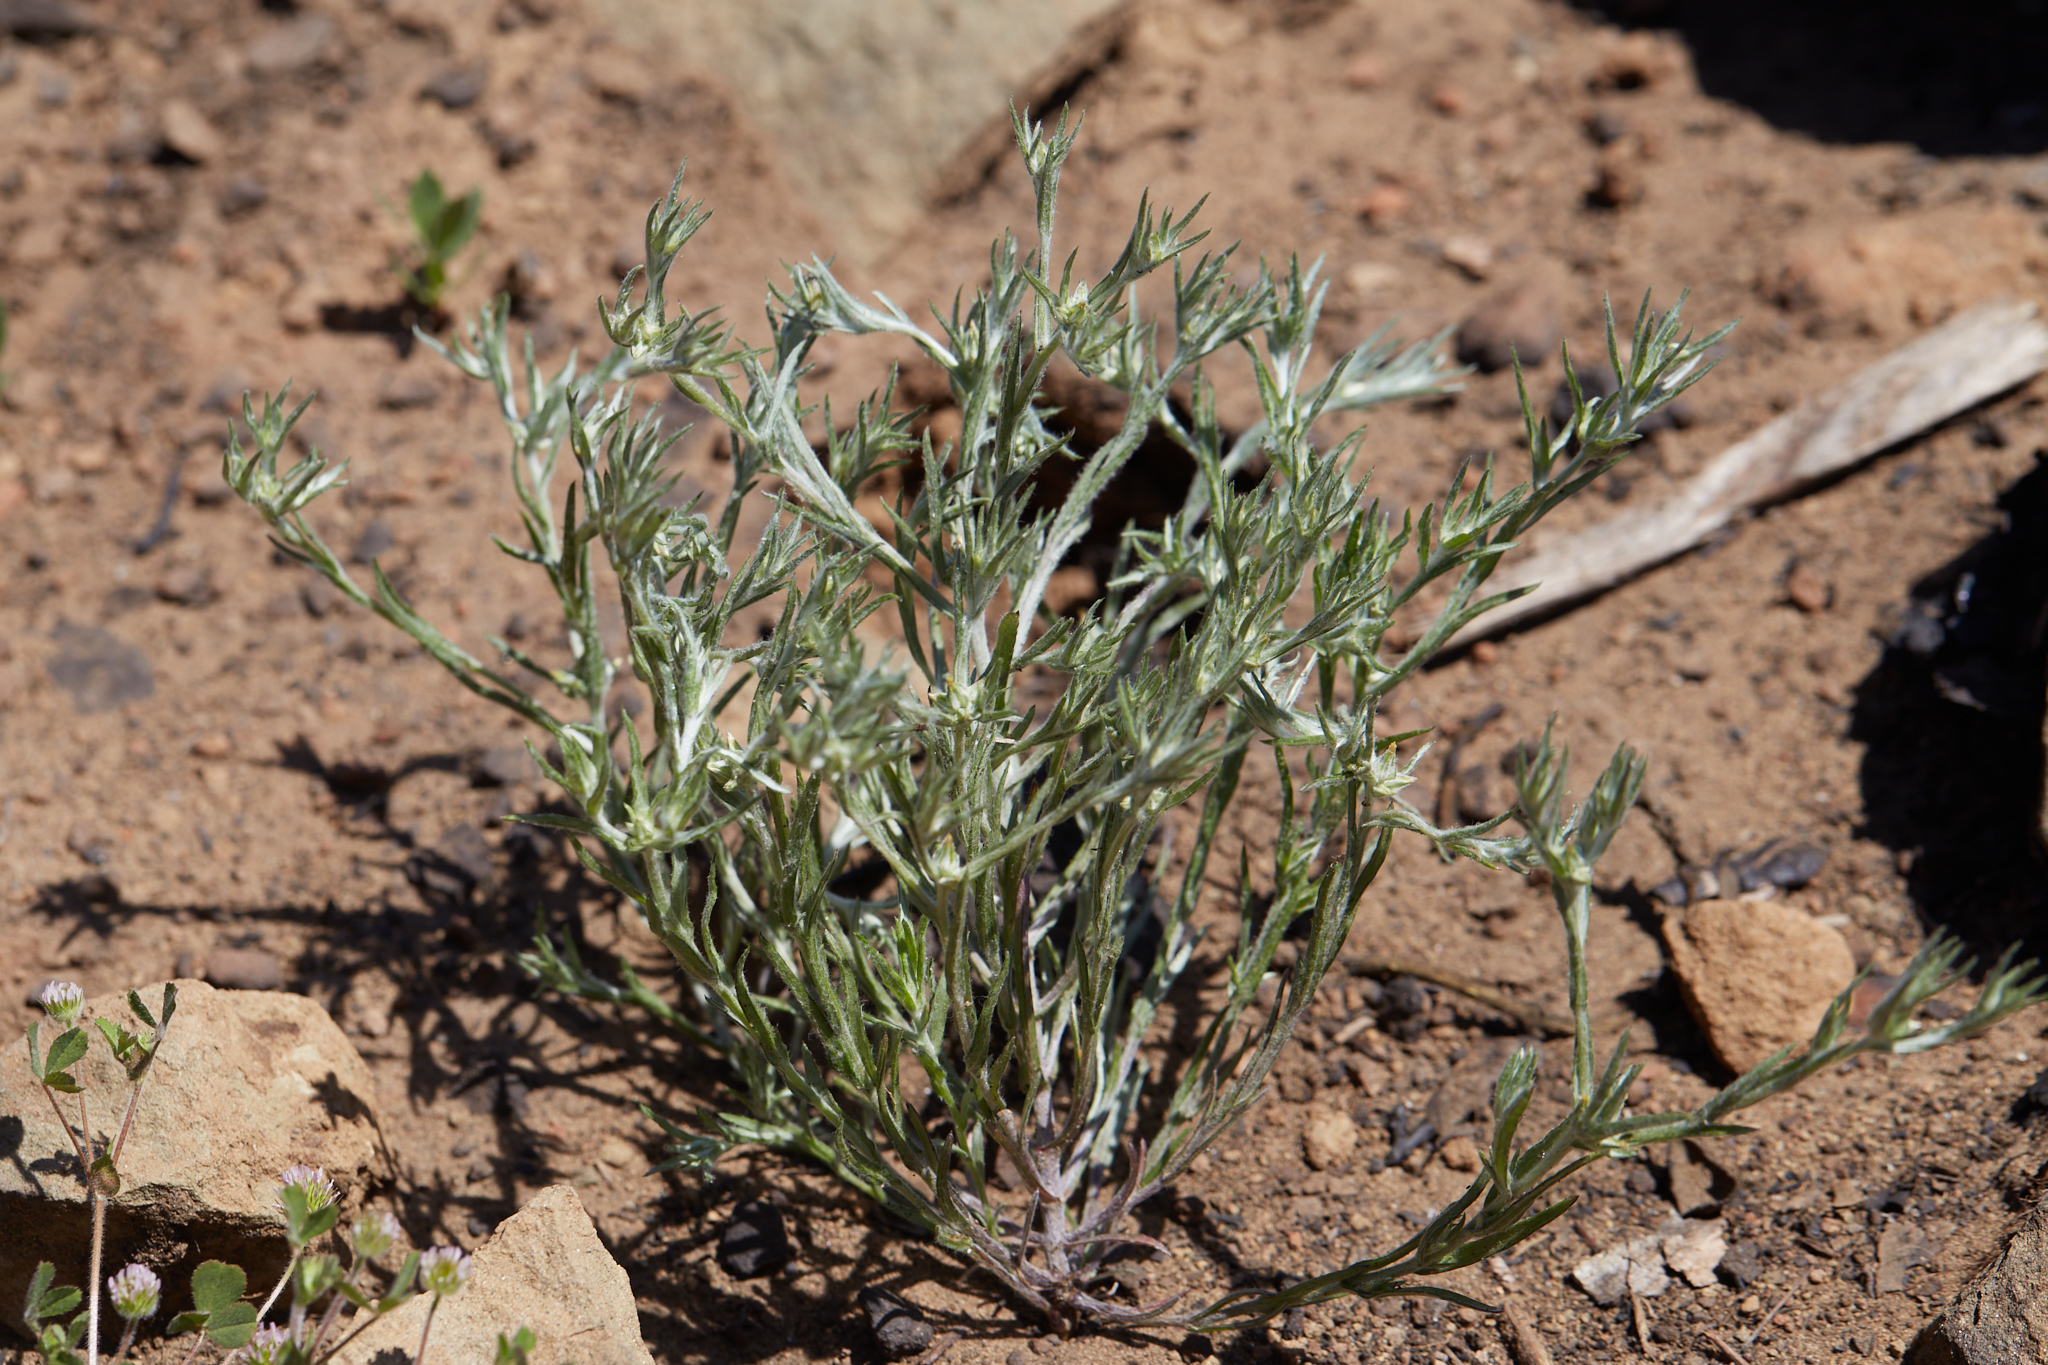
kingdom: Plantae
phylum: Tracheophyta
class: Magnoliopsida
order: Asterales
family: Asteraceae
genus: Logfia
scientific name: Logfia gallica
